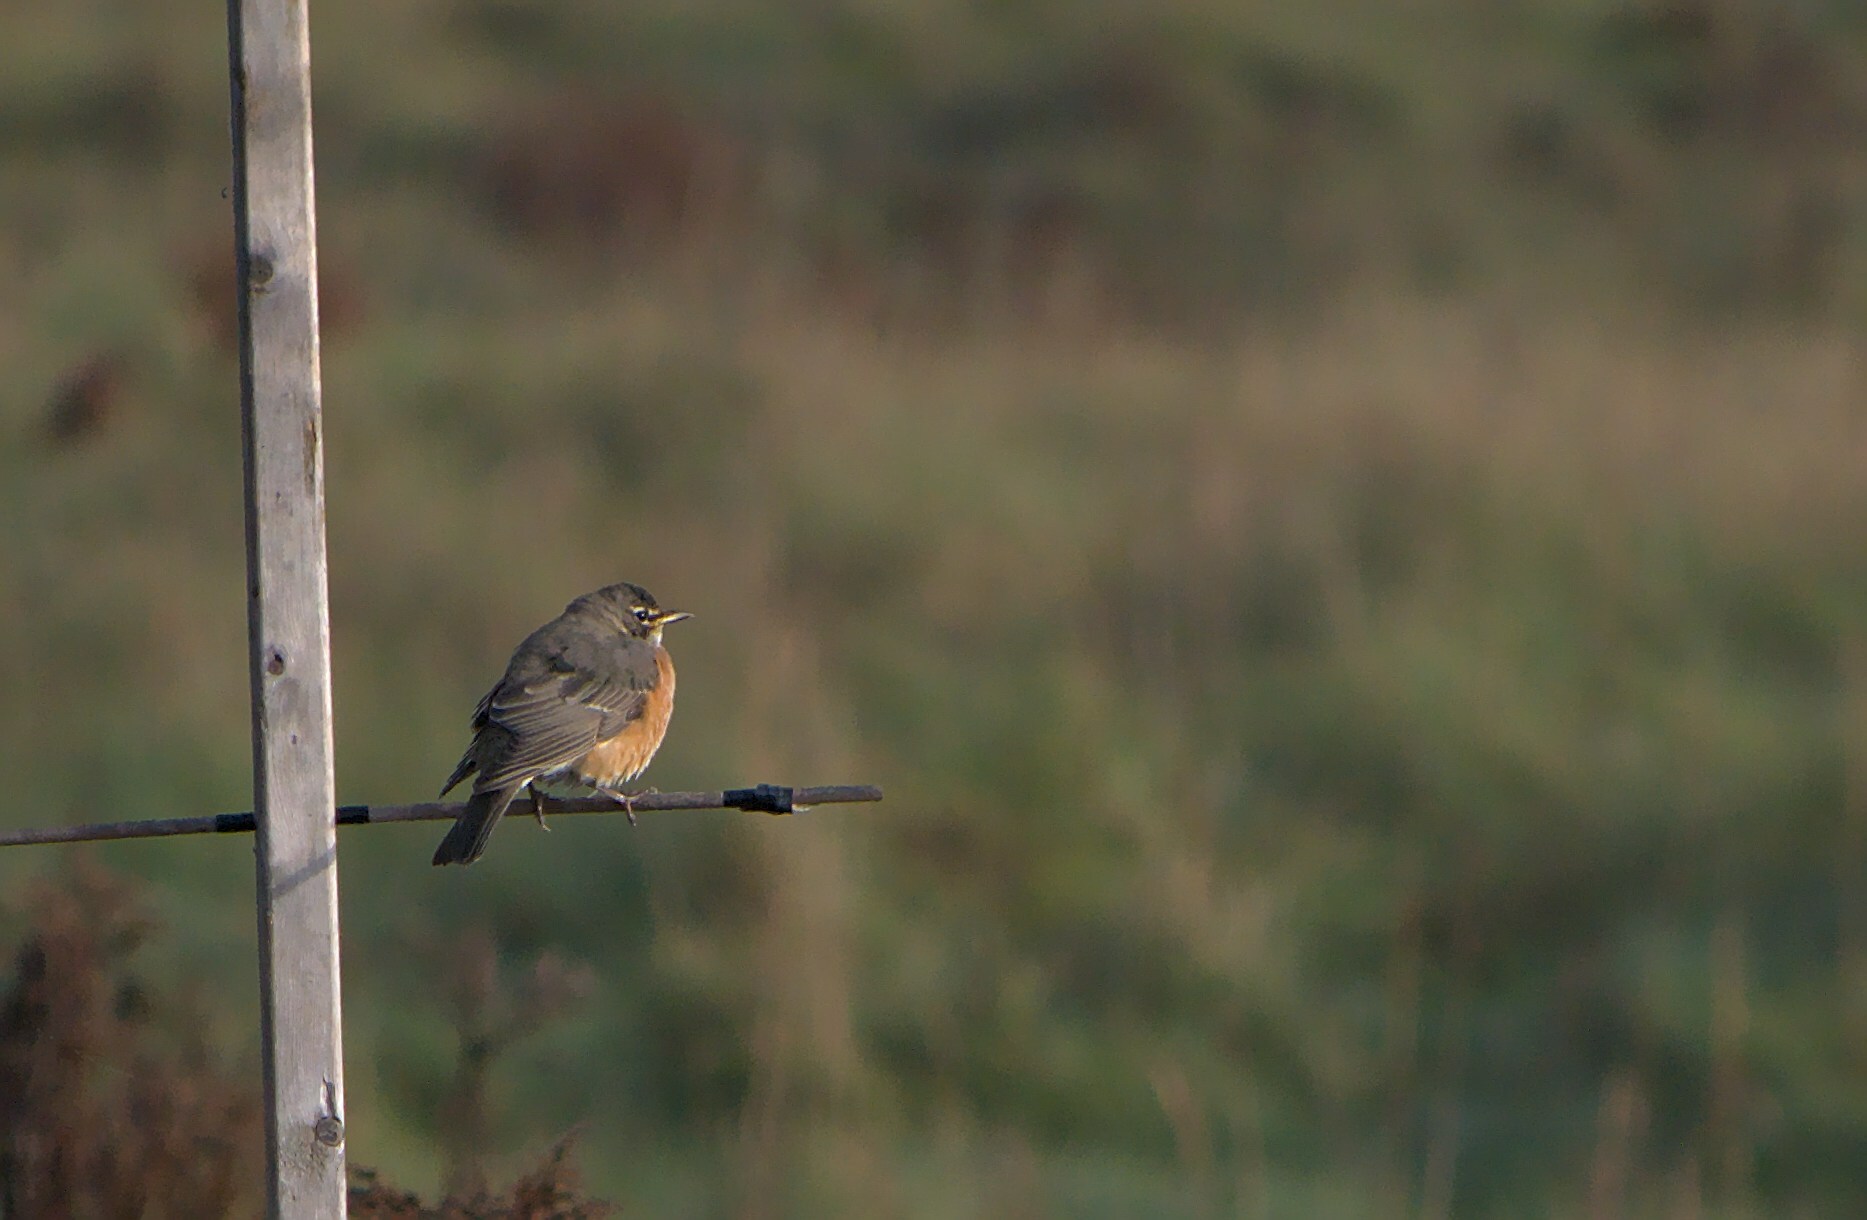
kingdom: Animalia
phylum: Chordata
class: Aves
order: Passeriformes
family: Turdidae
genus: Turdus
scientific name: Turdus migratorius
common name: American robin
